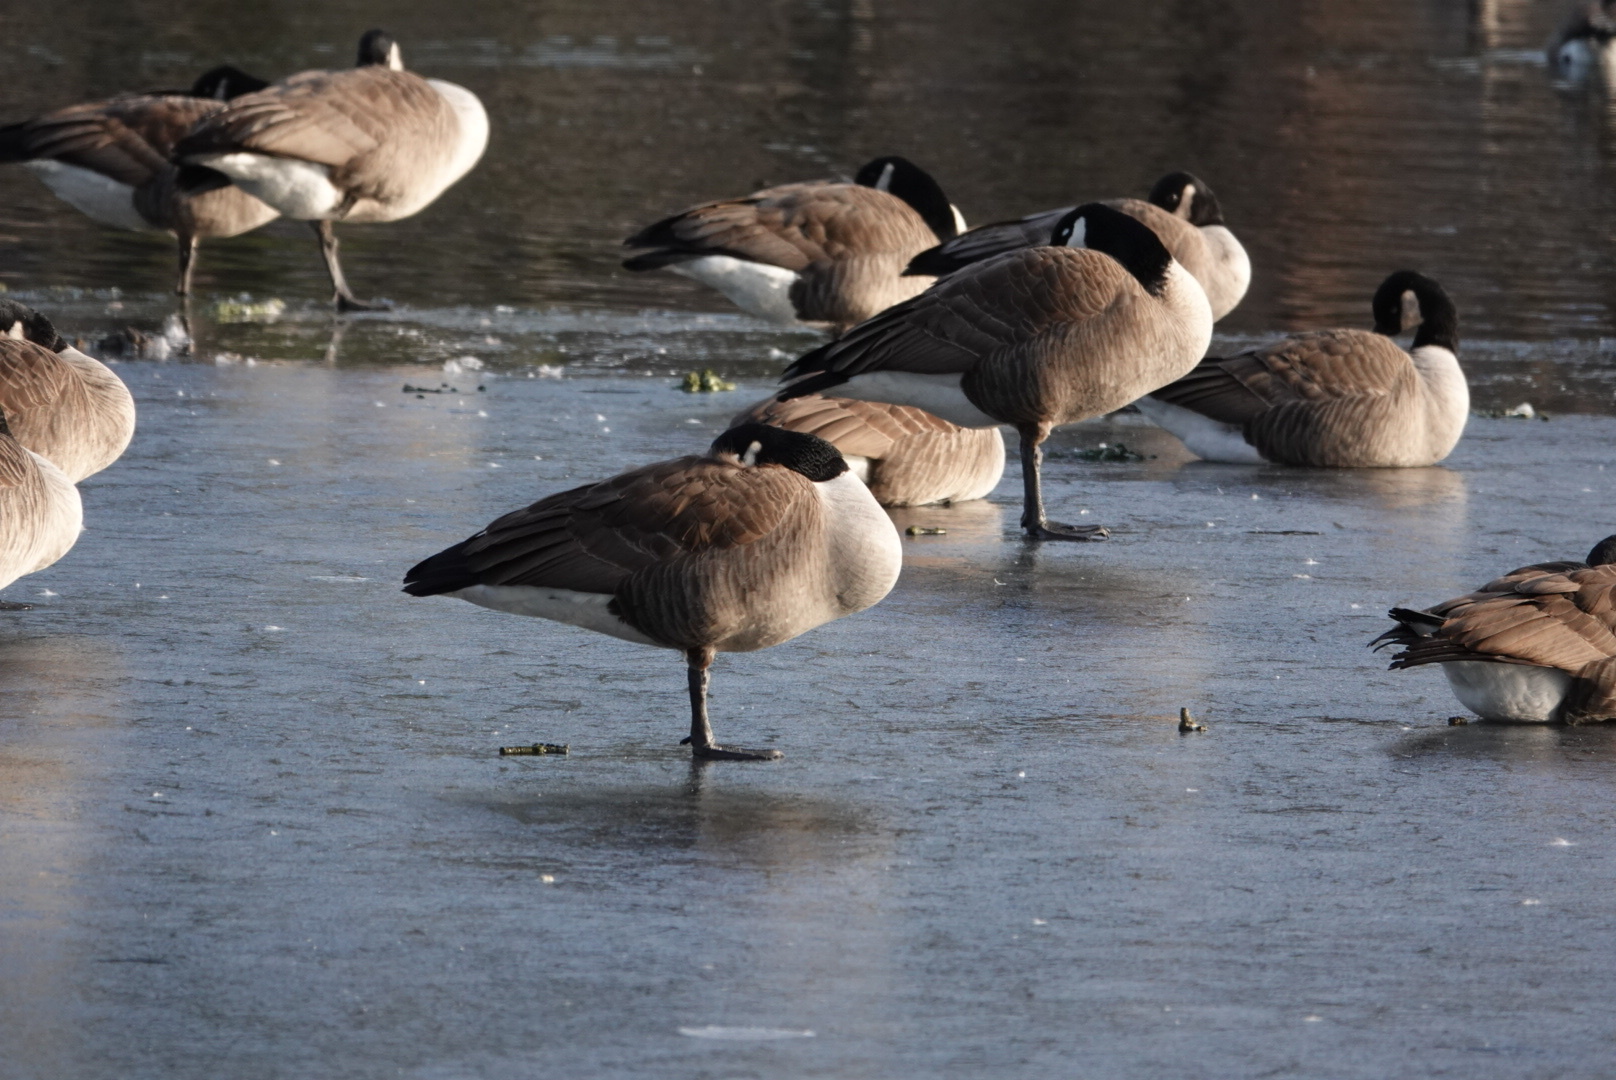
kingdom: Animalia
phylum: Chordata
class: Aves
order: Anseriformes
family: Anatidae
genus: Branta
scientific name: Branta canadensis
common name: Canada goose
